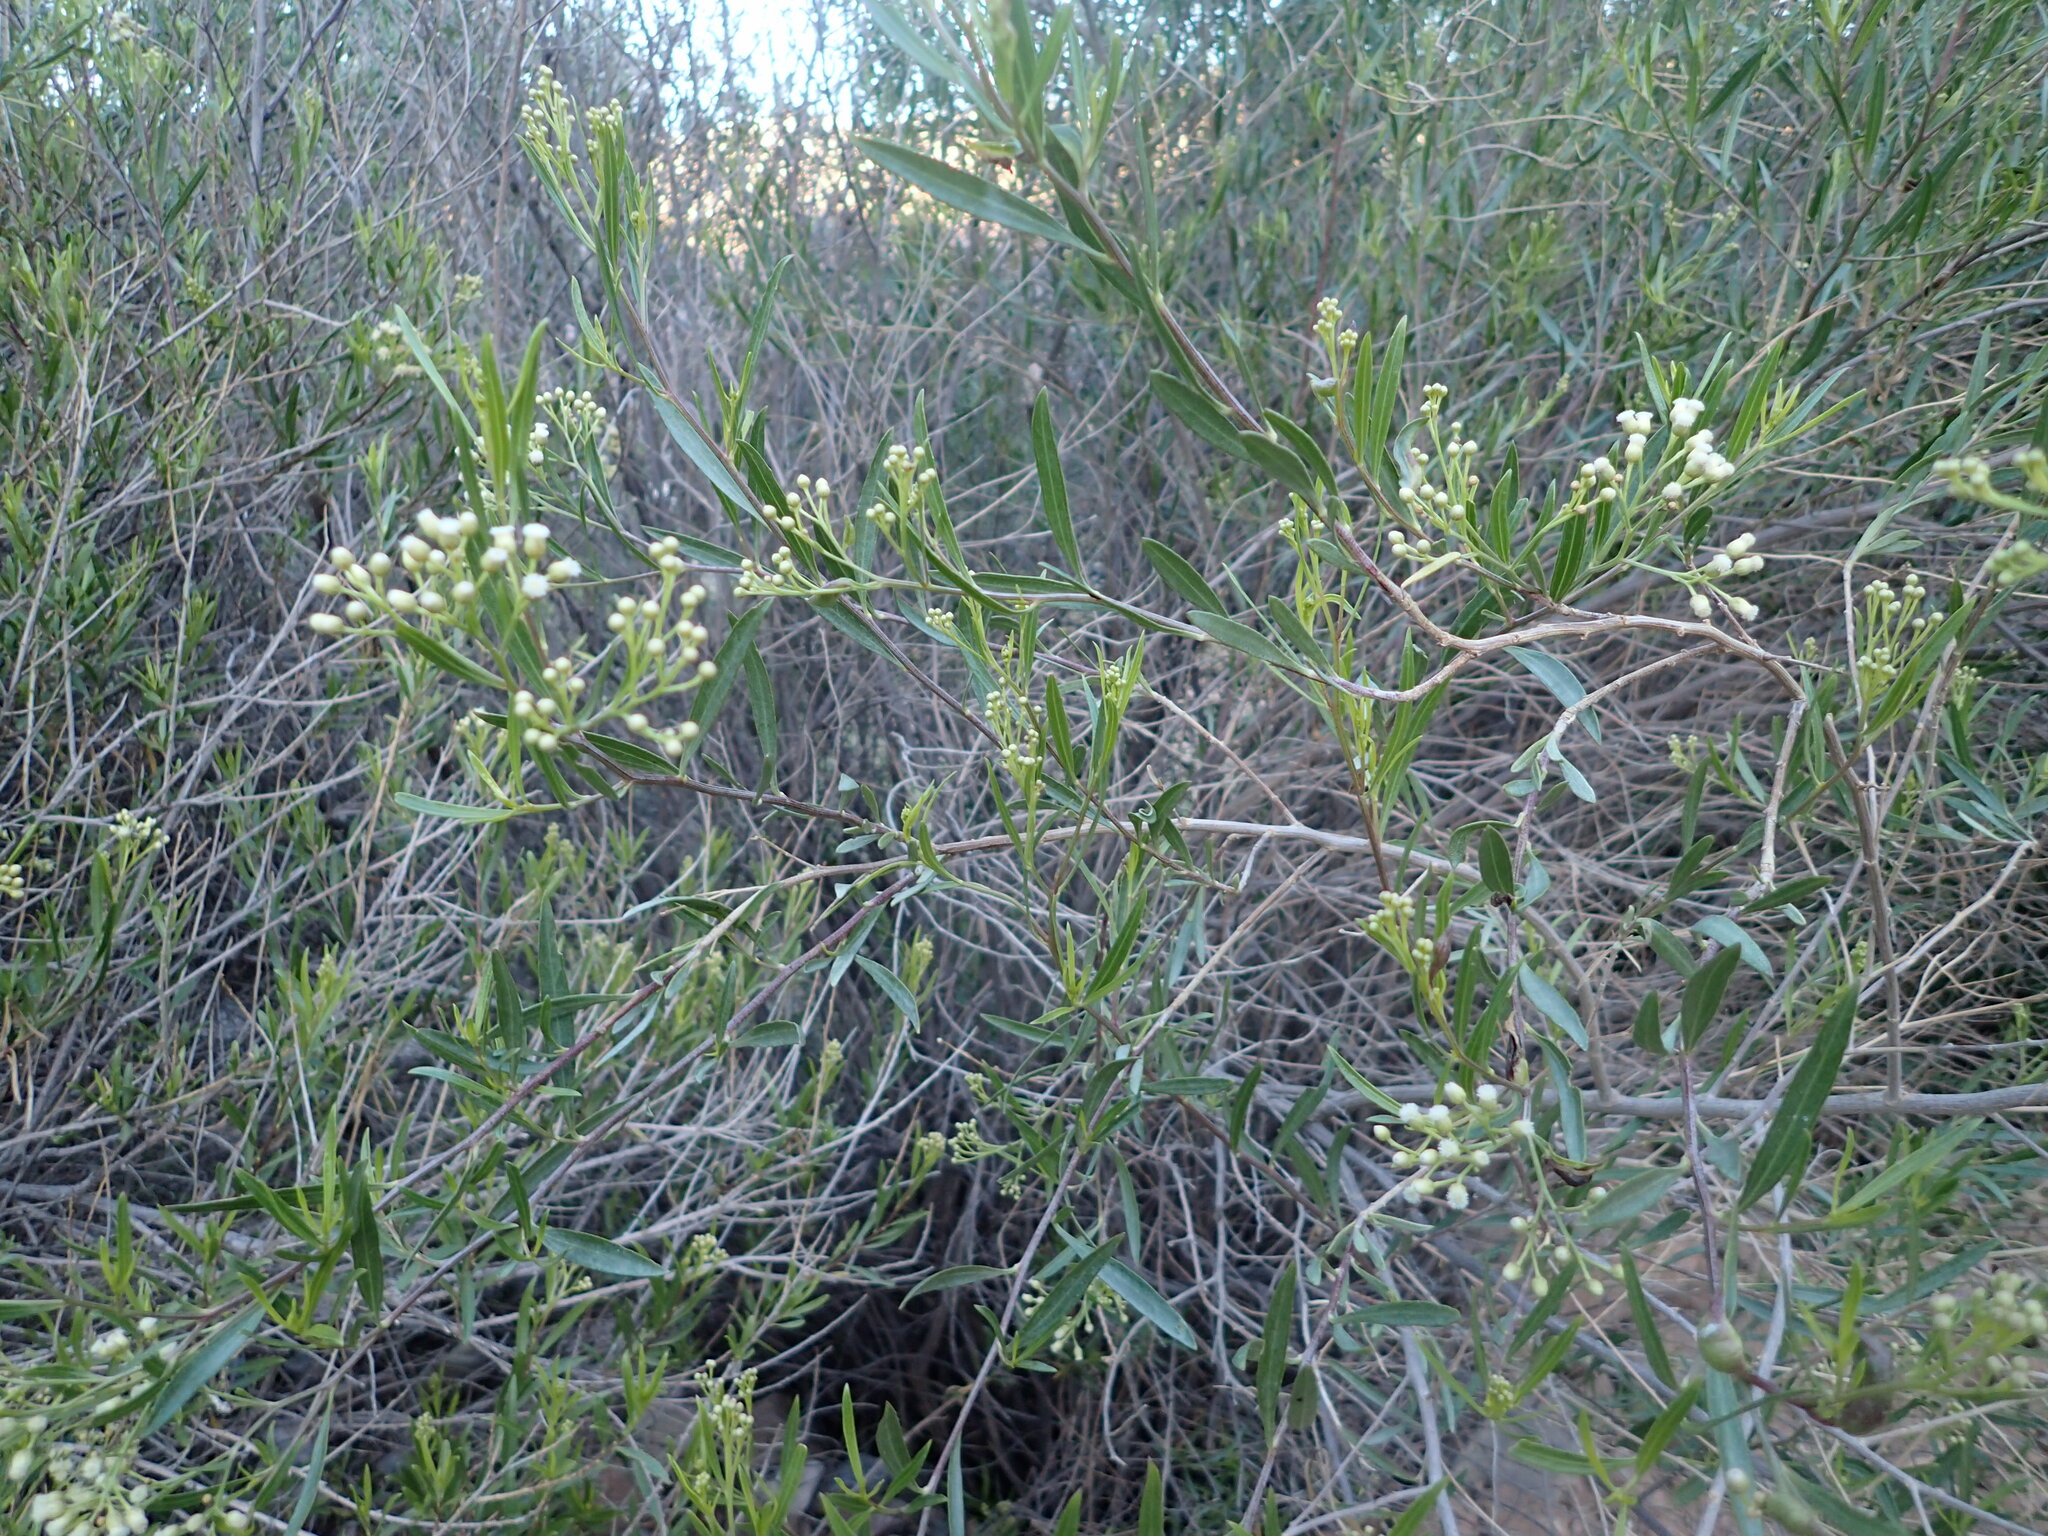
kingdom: Plantae
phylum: Tracheophyta
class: Magnoliopsida
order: Asterales
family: Asteraceae
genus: Baccharis
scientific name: Baccharis salicifolia
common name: Sticky baccharis
